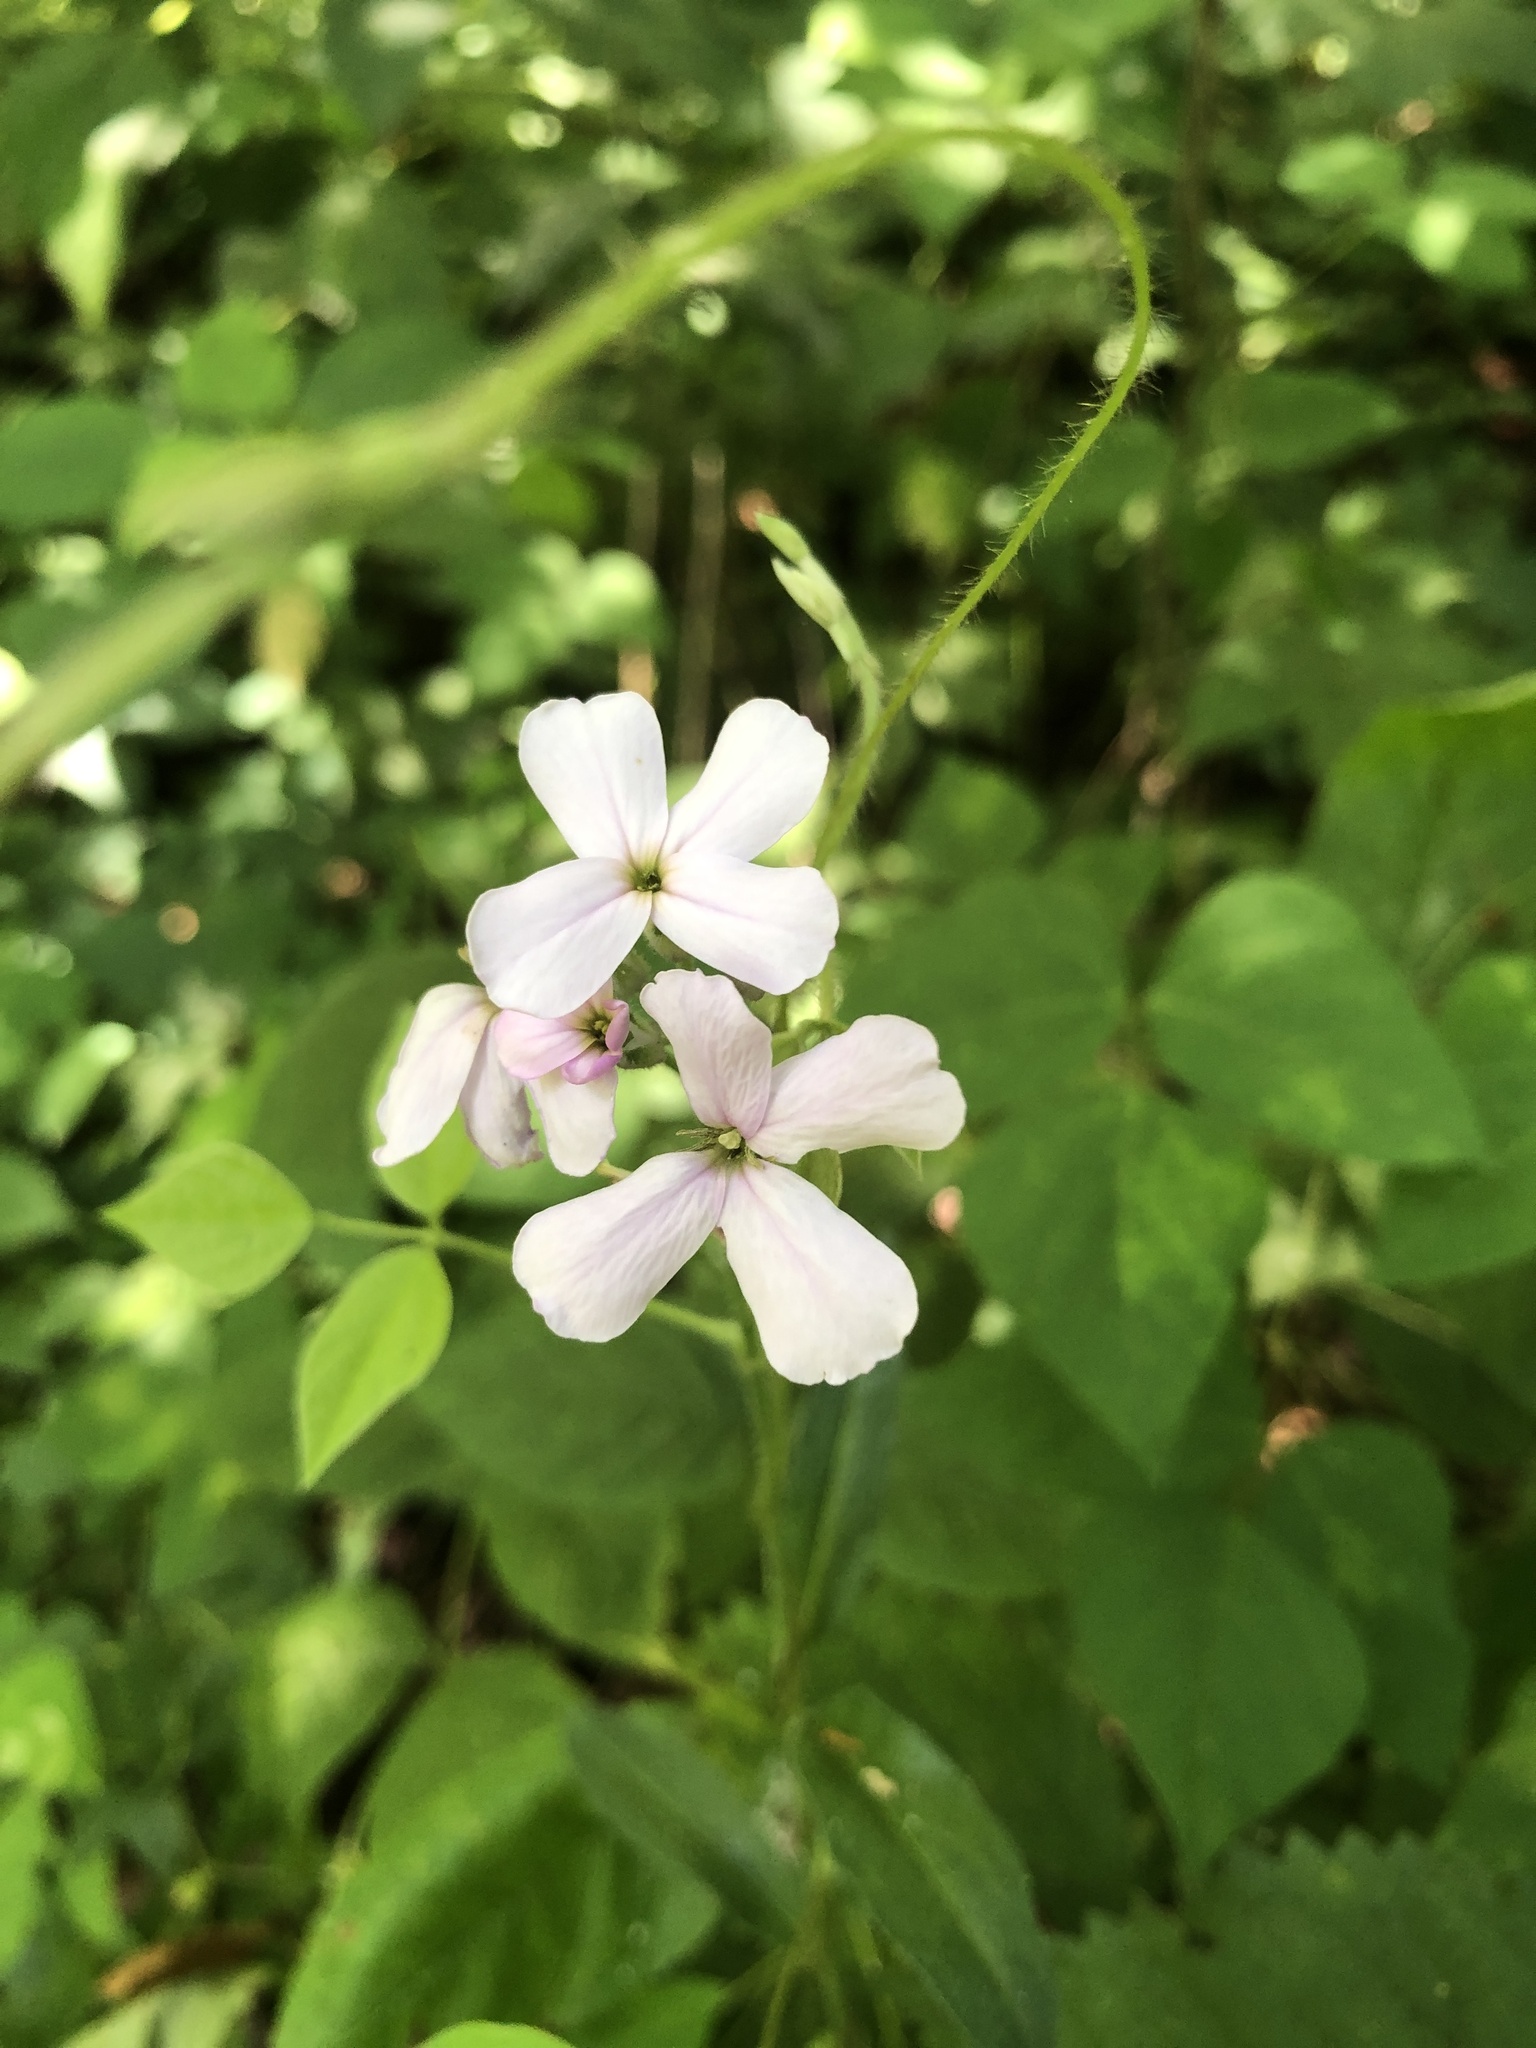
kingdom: Plantae
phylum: Tracheophyta
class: Magnoliopsida
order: Brassicales
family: Brassicaceae
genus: Hesperis
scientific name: Hesperis matronalis
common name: Dame's-violet
